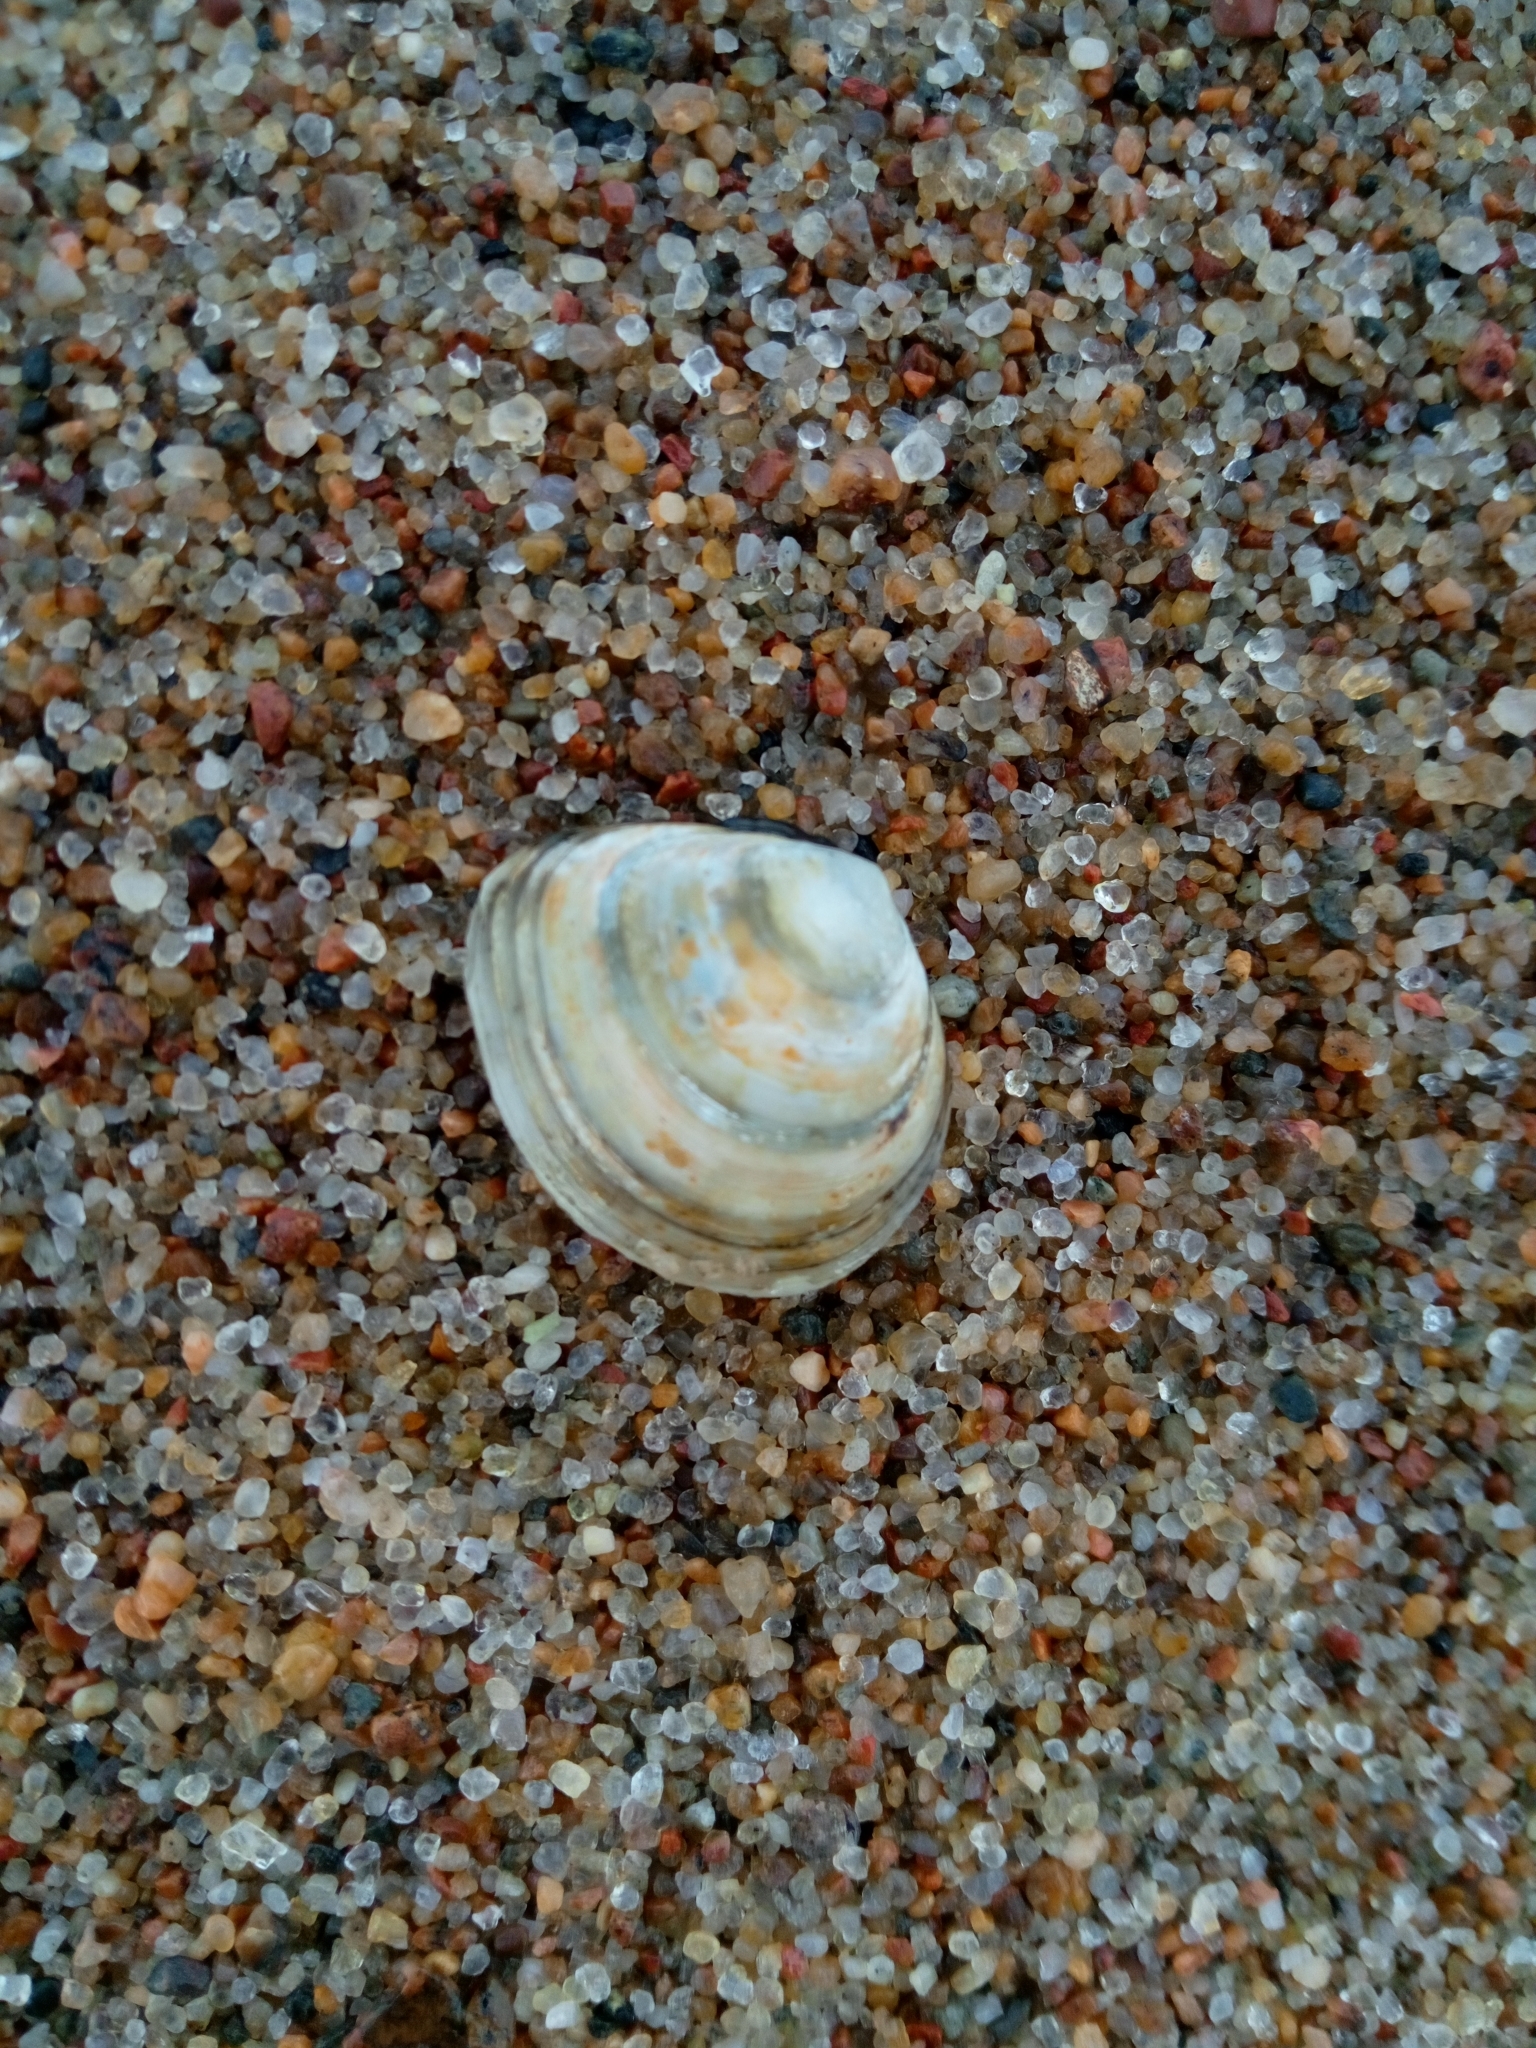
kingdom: Animalia
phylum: Mollusca
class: Bivalvia
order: Cardiida
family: Tellinidae
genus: Macoma
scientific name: Macoma balthica
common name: Baltic tellin
